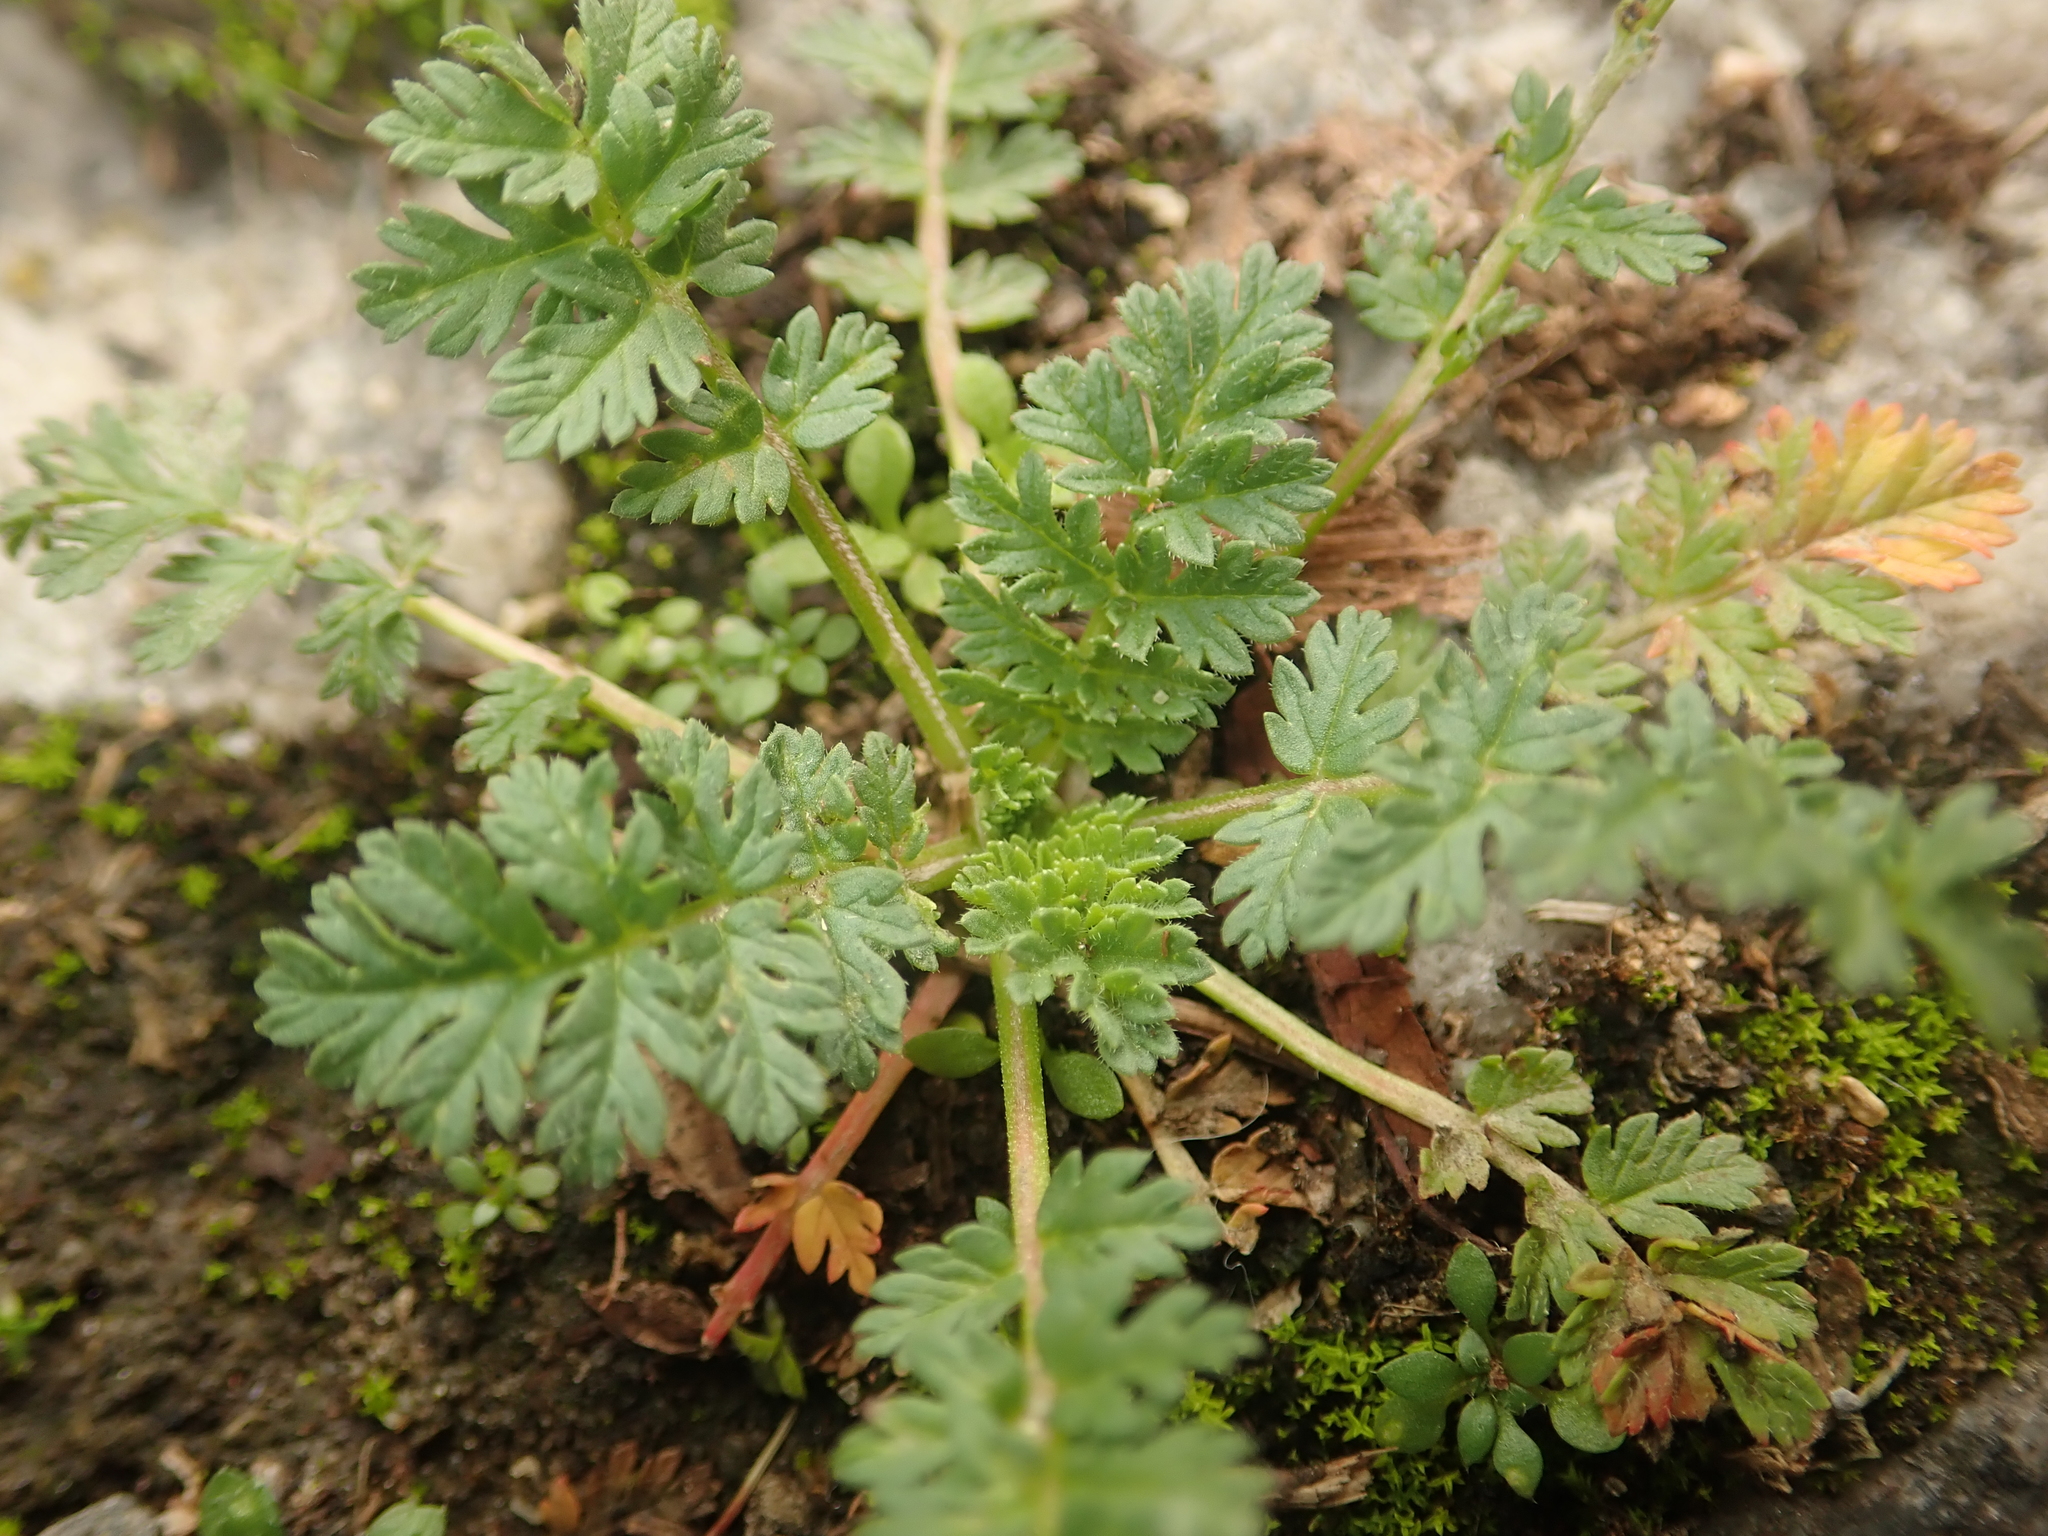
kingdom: Plantae
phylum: Tracheophyta
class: Magnoliopsida
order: Geraniales
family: Geraniaceae
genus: Erodium
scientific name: Erodium cicutarium
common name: Common stork's-bill
